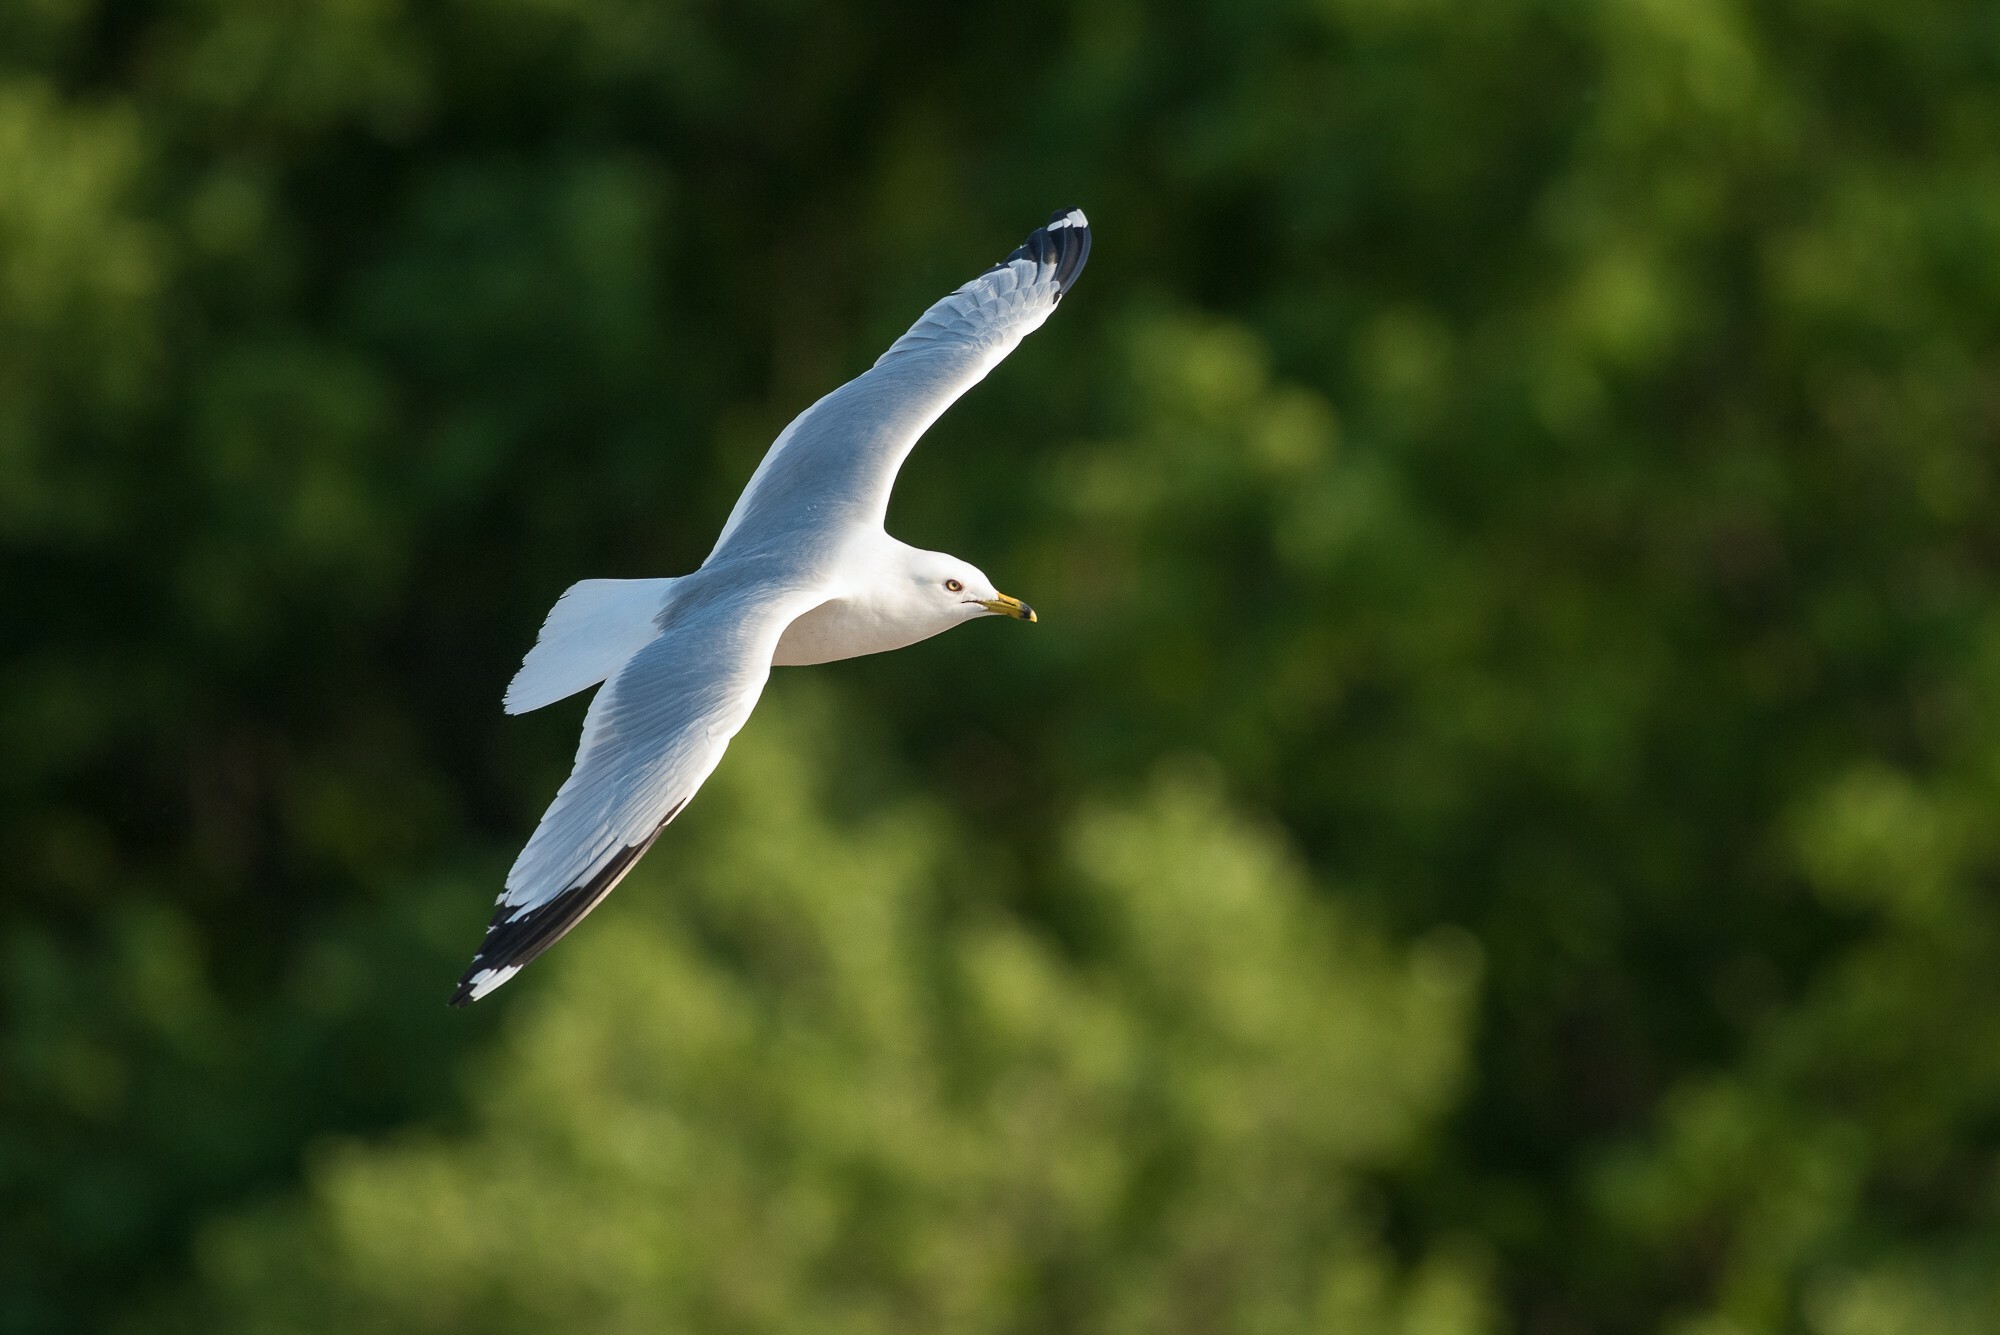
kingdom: Animalia
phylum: Chordata
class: Aves
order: Charadriiformes
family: Laridae
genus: Larus
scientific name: Larus delawarensis
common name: Ring-billed gull
